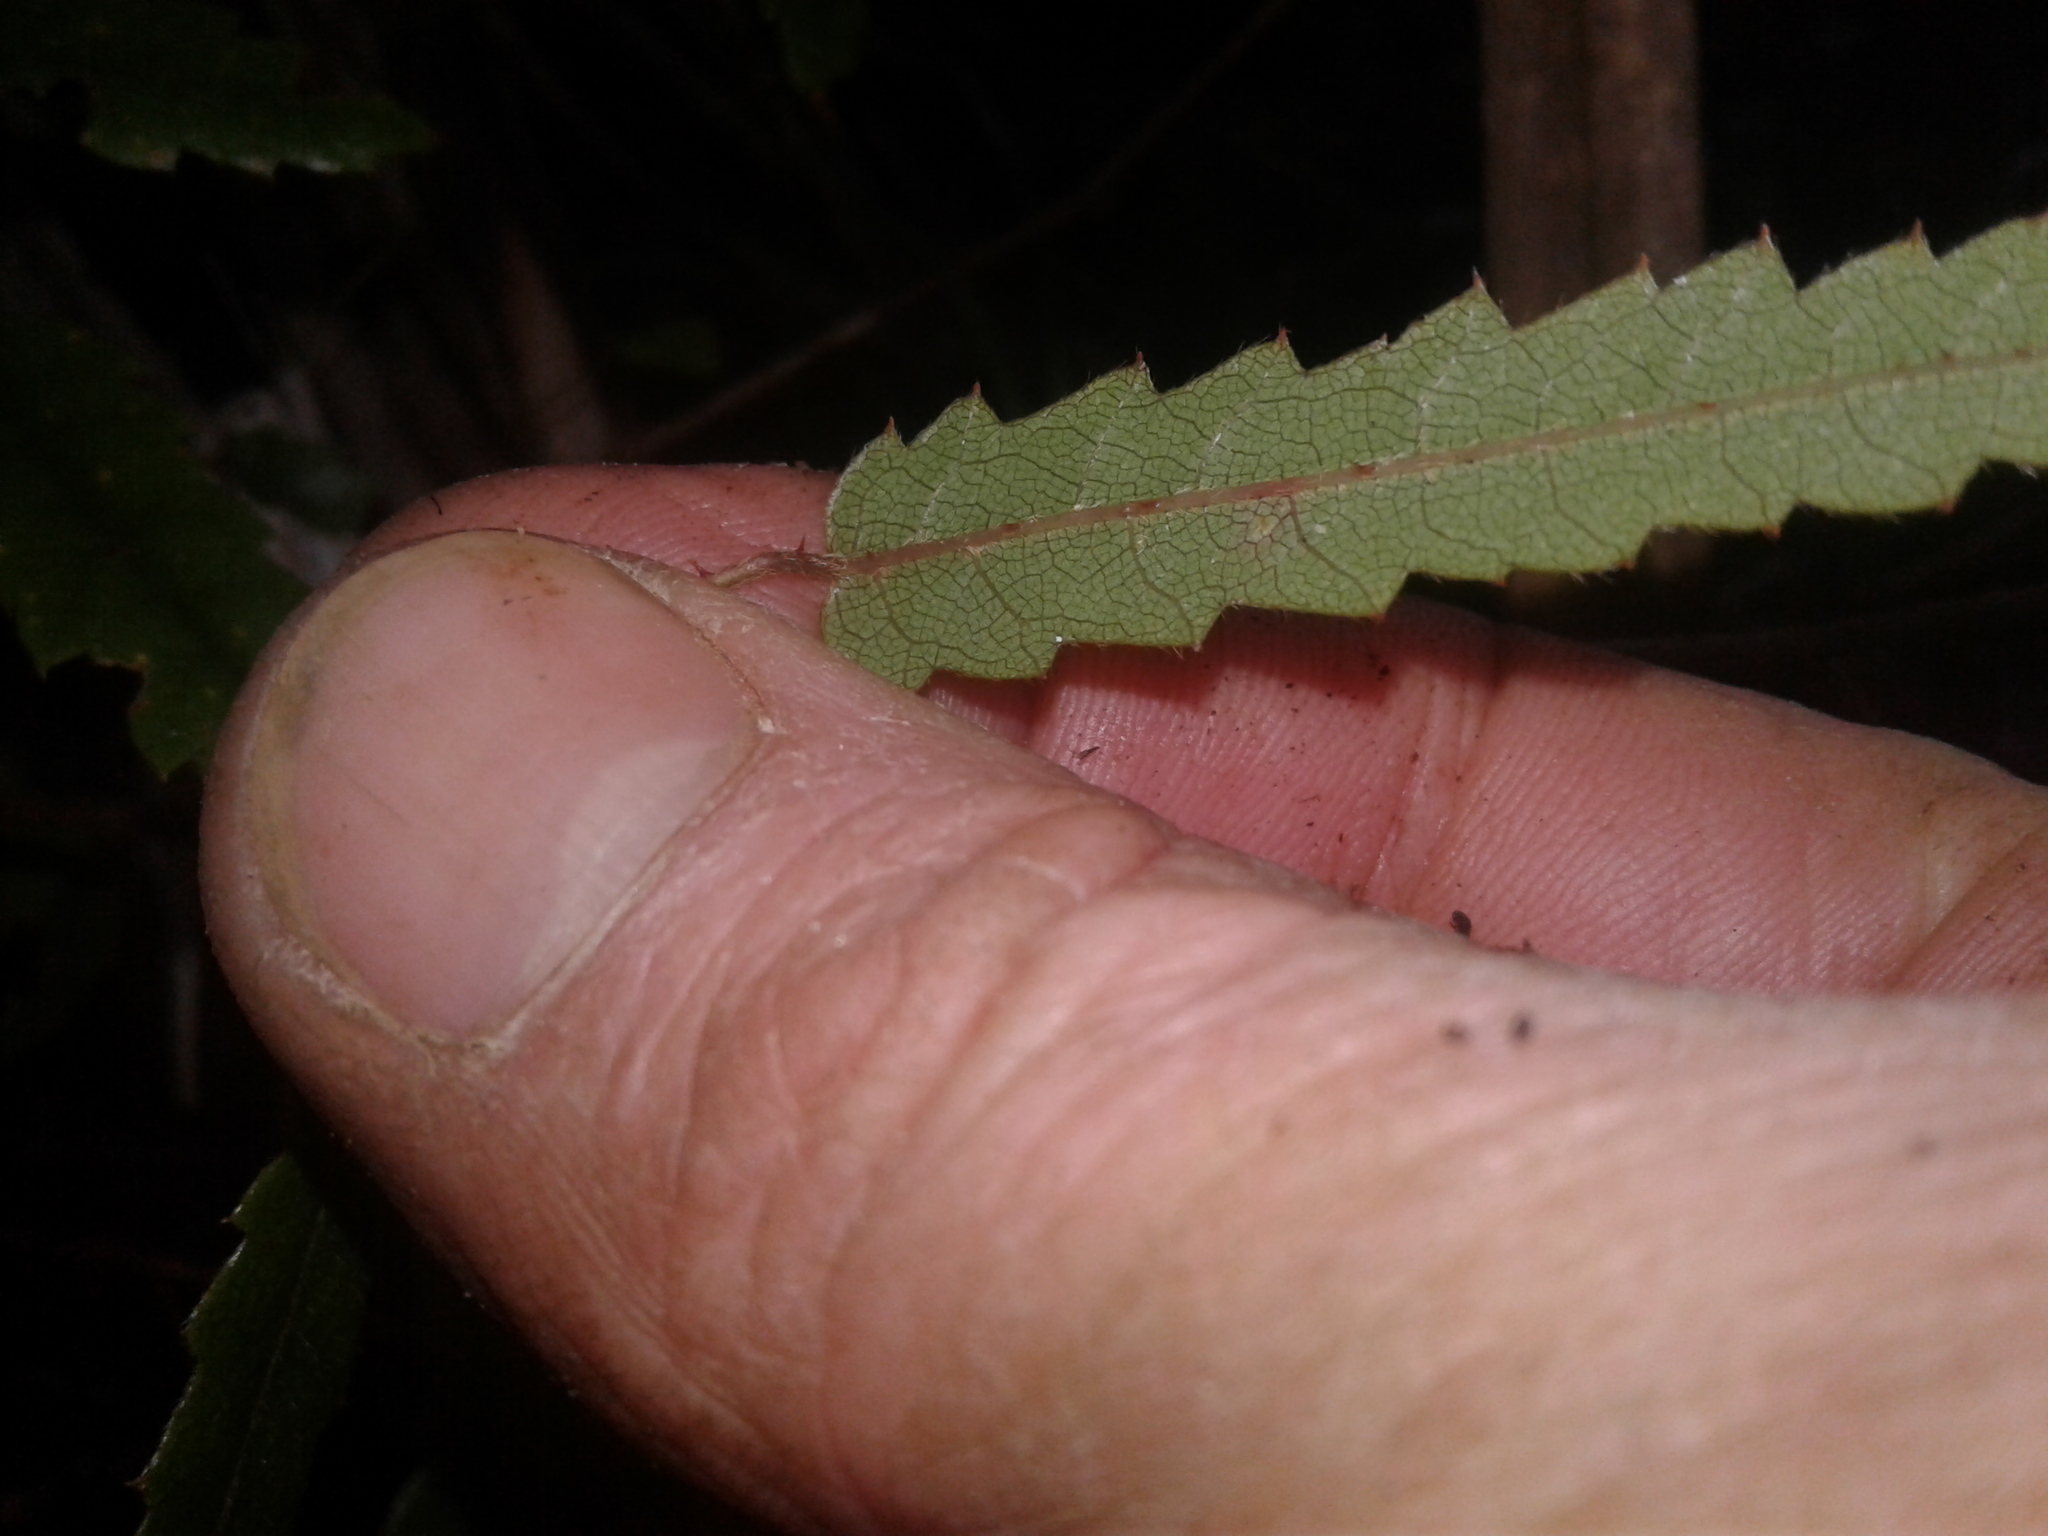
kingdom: Plantae
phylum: Tracheophyta
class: Magnoliopsida
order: Rosales
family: Rosaceae
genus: Rubus
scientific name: Rubus schmidelioides
